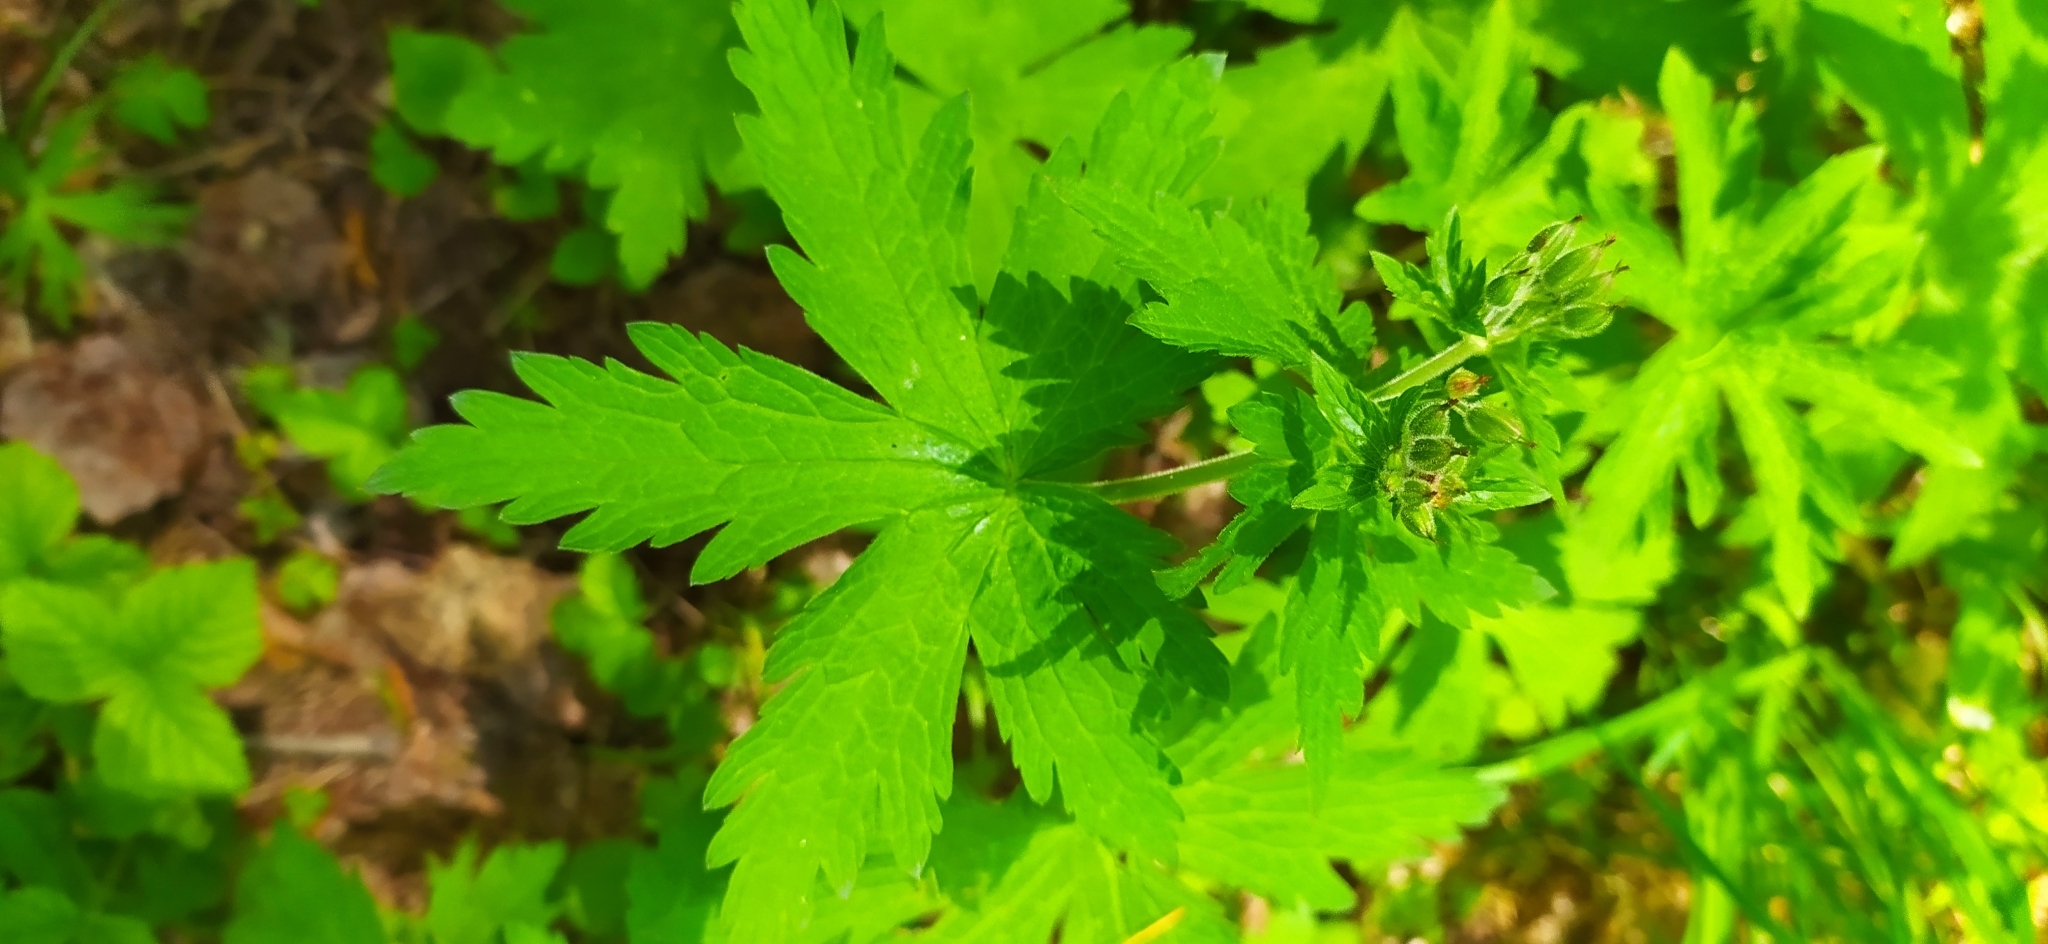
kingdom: Plantae
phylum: Tracheophyta
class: Magnoliopsida
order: Geraniales
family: Geraniaceae
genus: Geranium
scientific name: Geranium sylvaticum
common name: Wood crane's-bill
